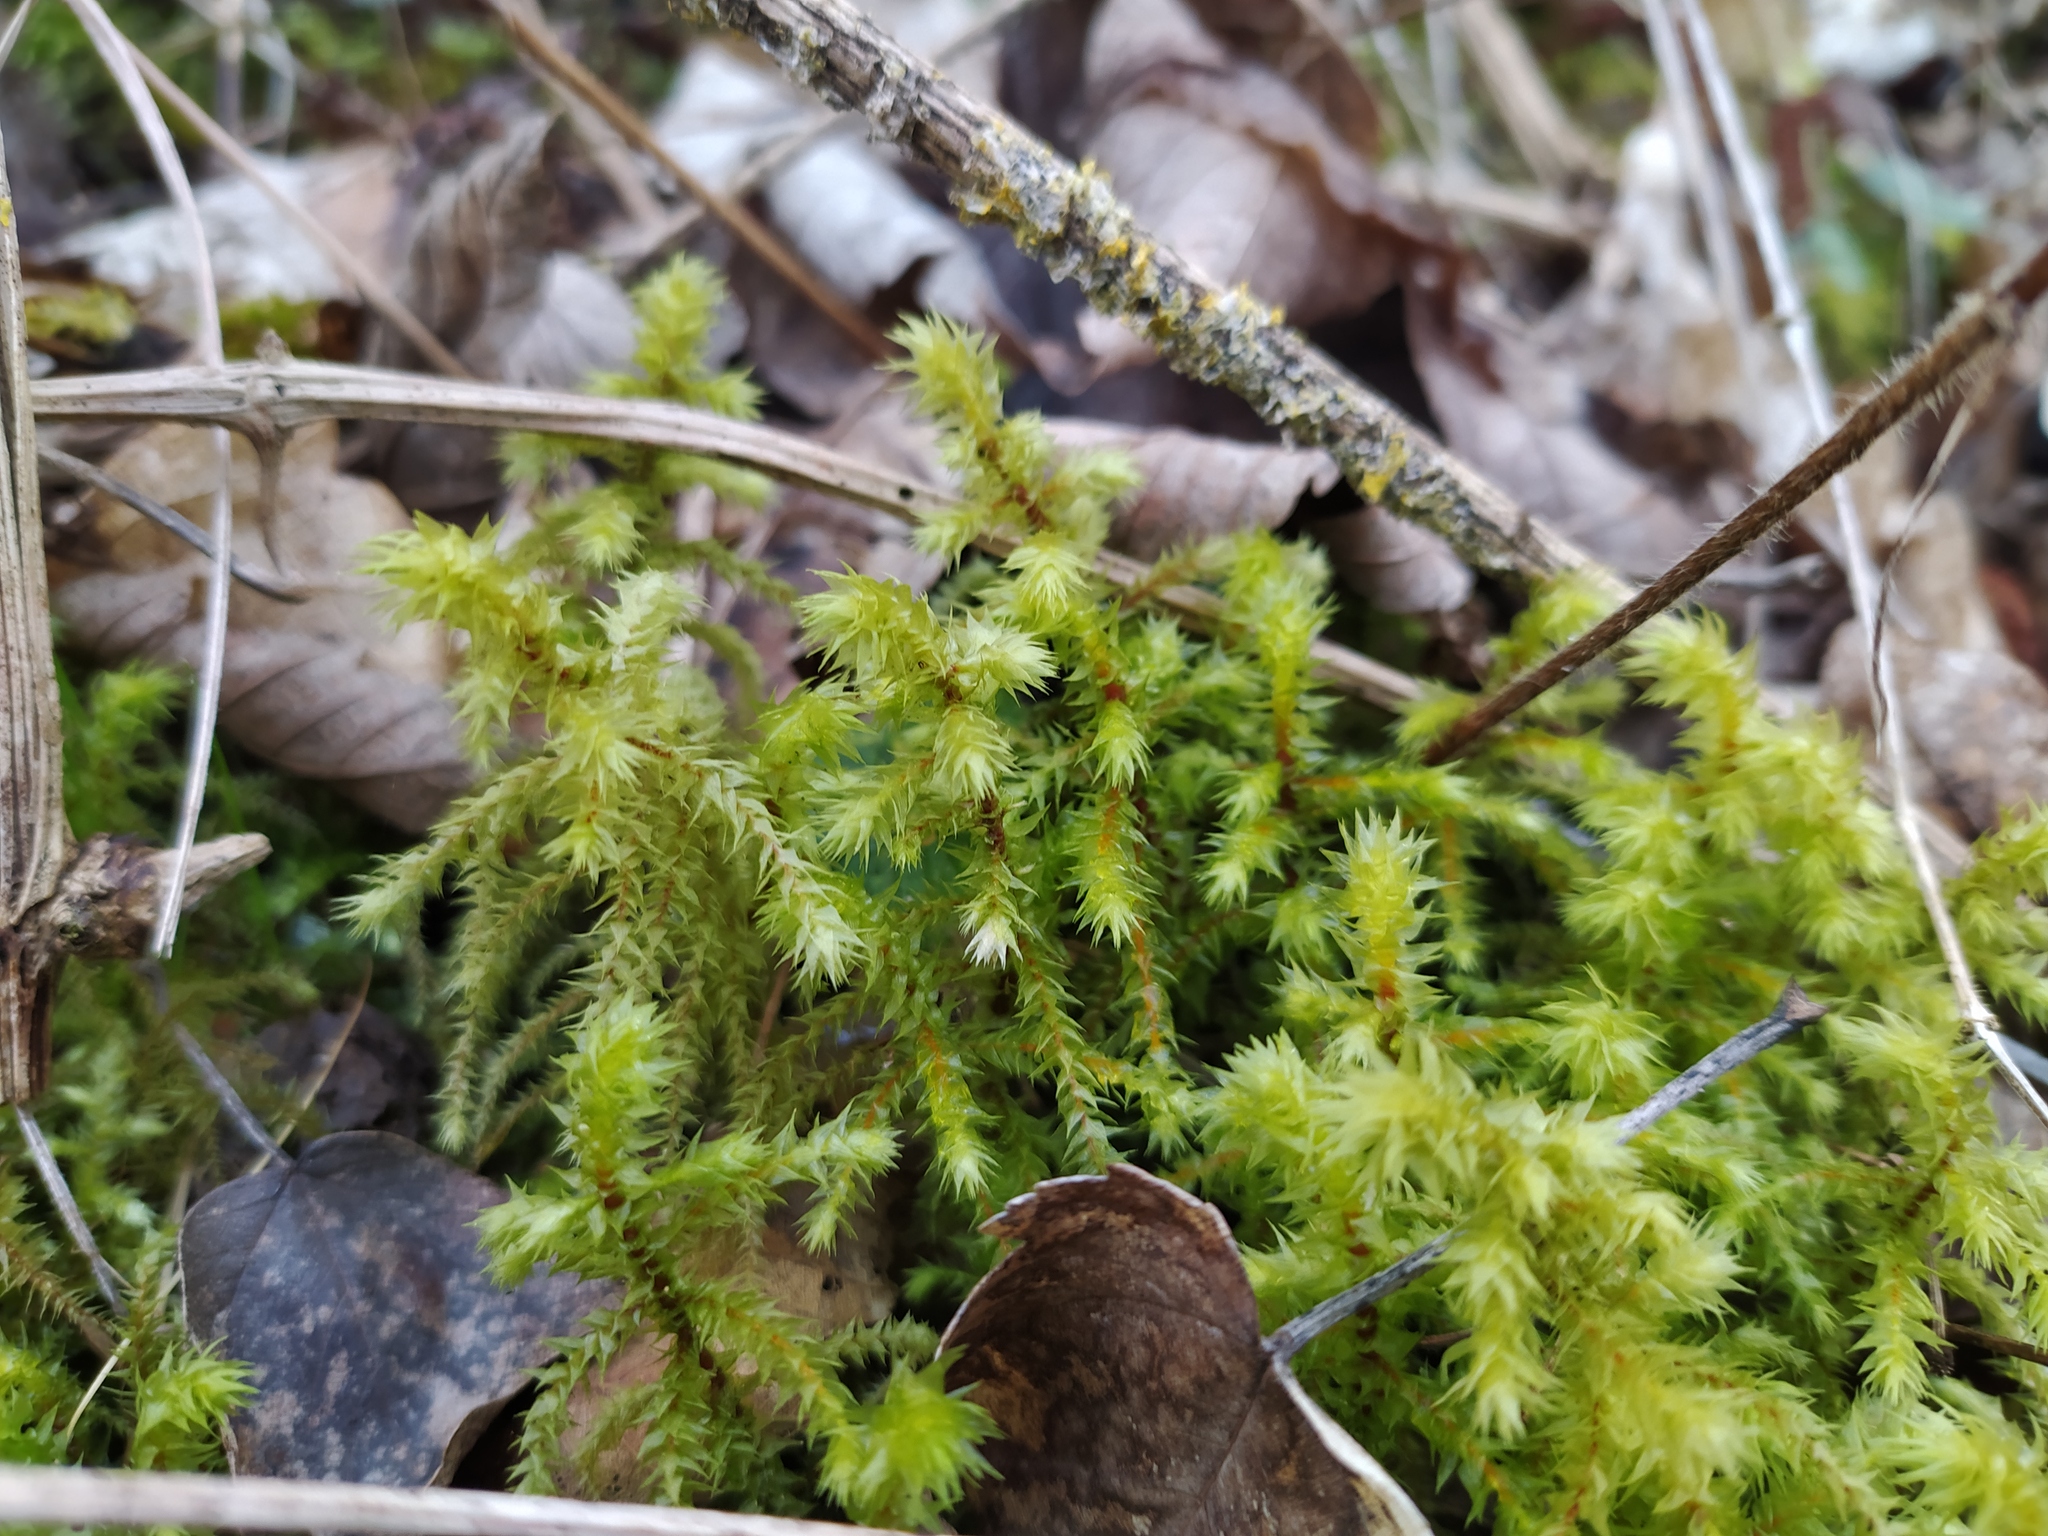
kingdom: Plantae
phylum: Bryophyta
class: Bryopsida
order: Hypnales
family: Hylocomiaceae
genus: Hylocomiadelphus
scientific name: Hylocomiadelphus triquetrus
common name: Rough goose neck moss
